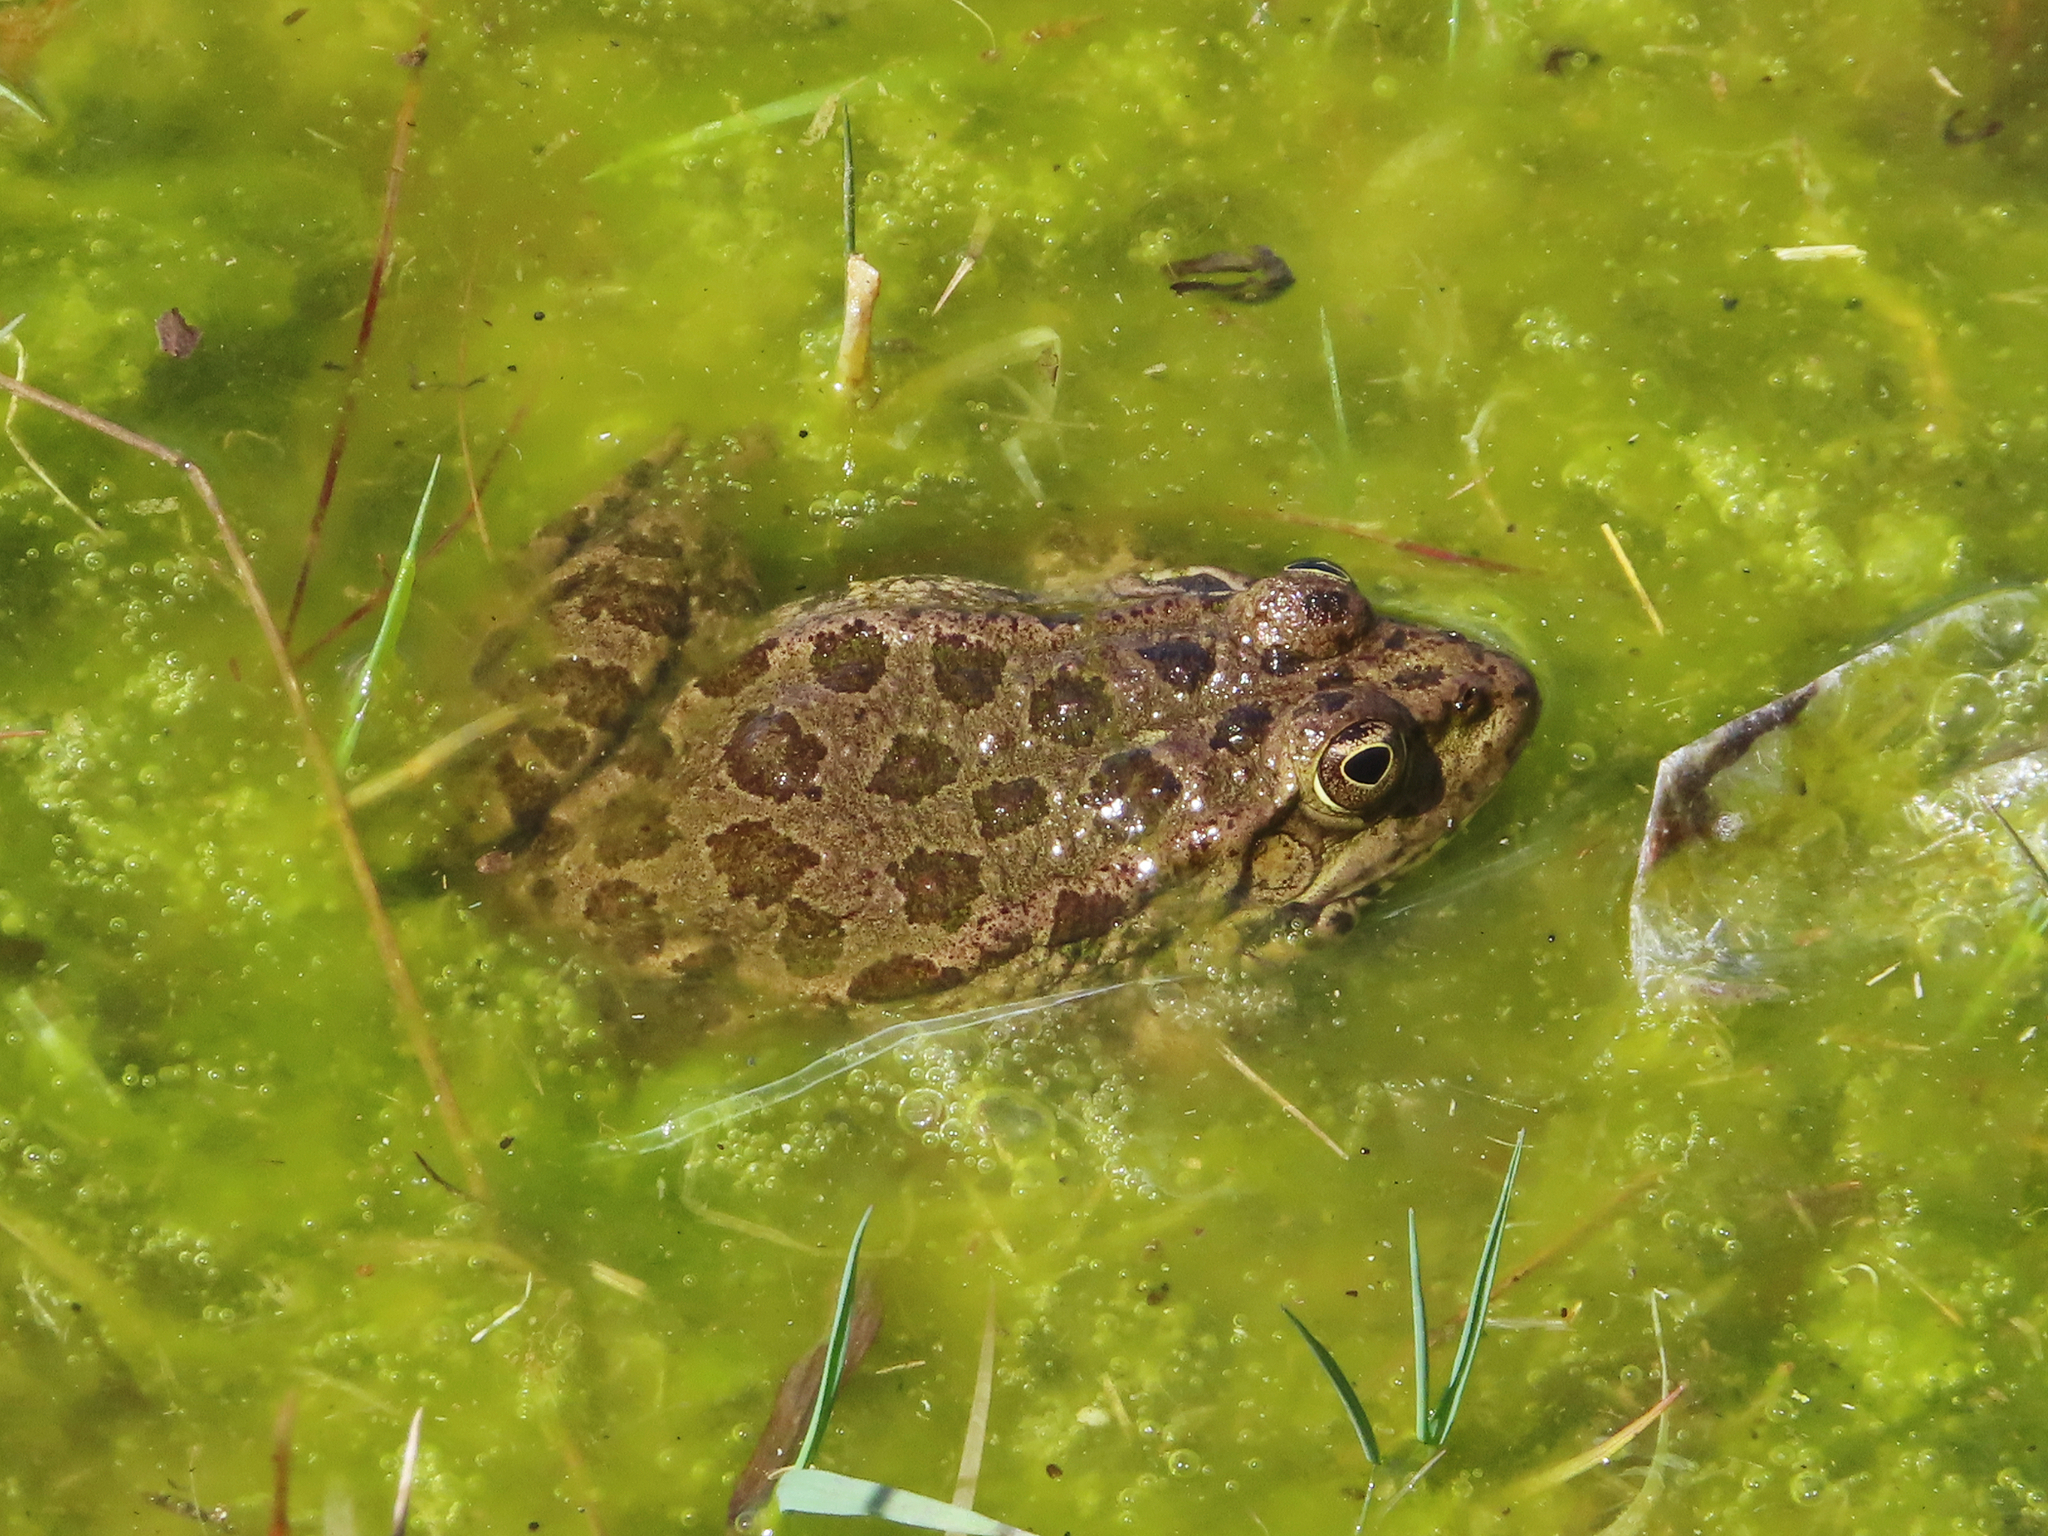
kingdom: Animalia
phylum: Chordata
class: Amphibia
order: Anura
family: Ranidae
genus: Pelophylax
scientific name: Pelophylax ridibundus
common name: Marsh frog
